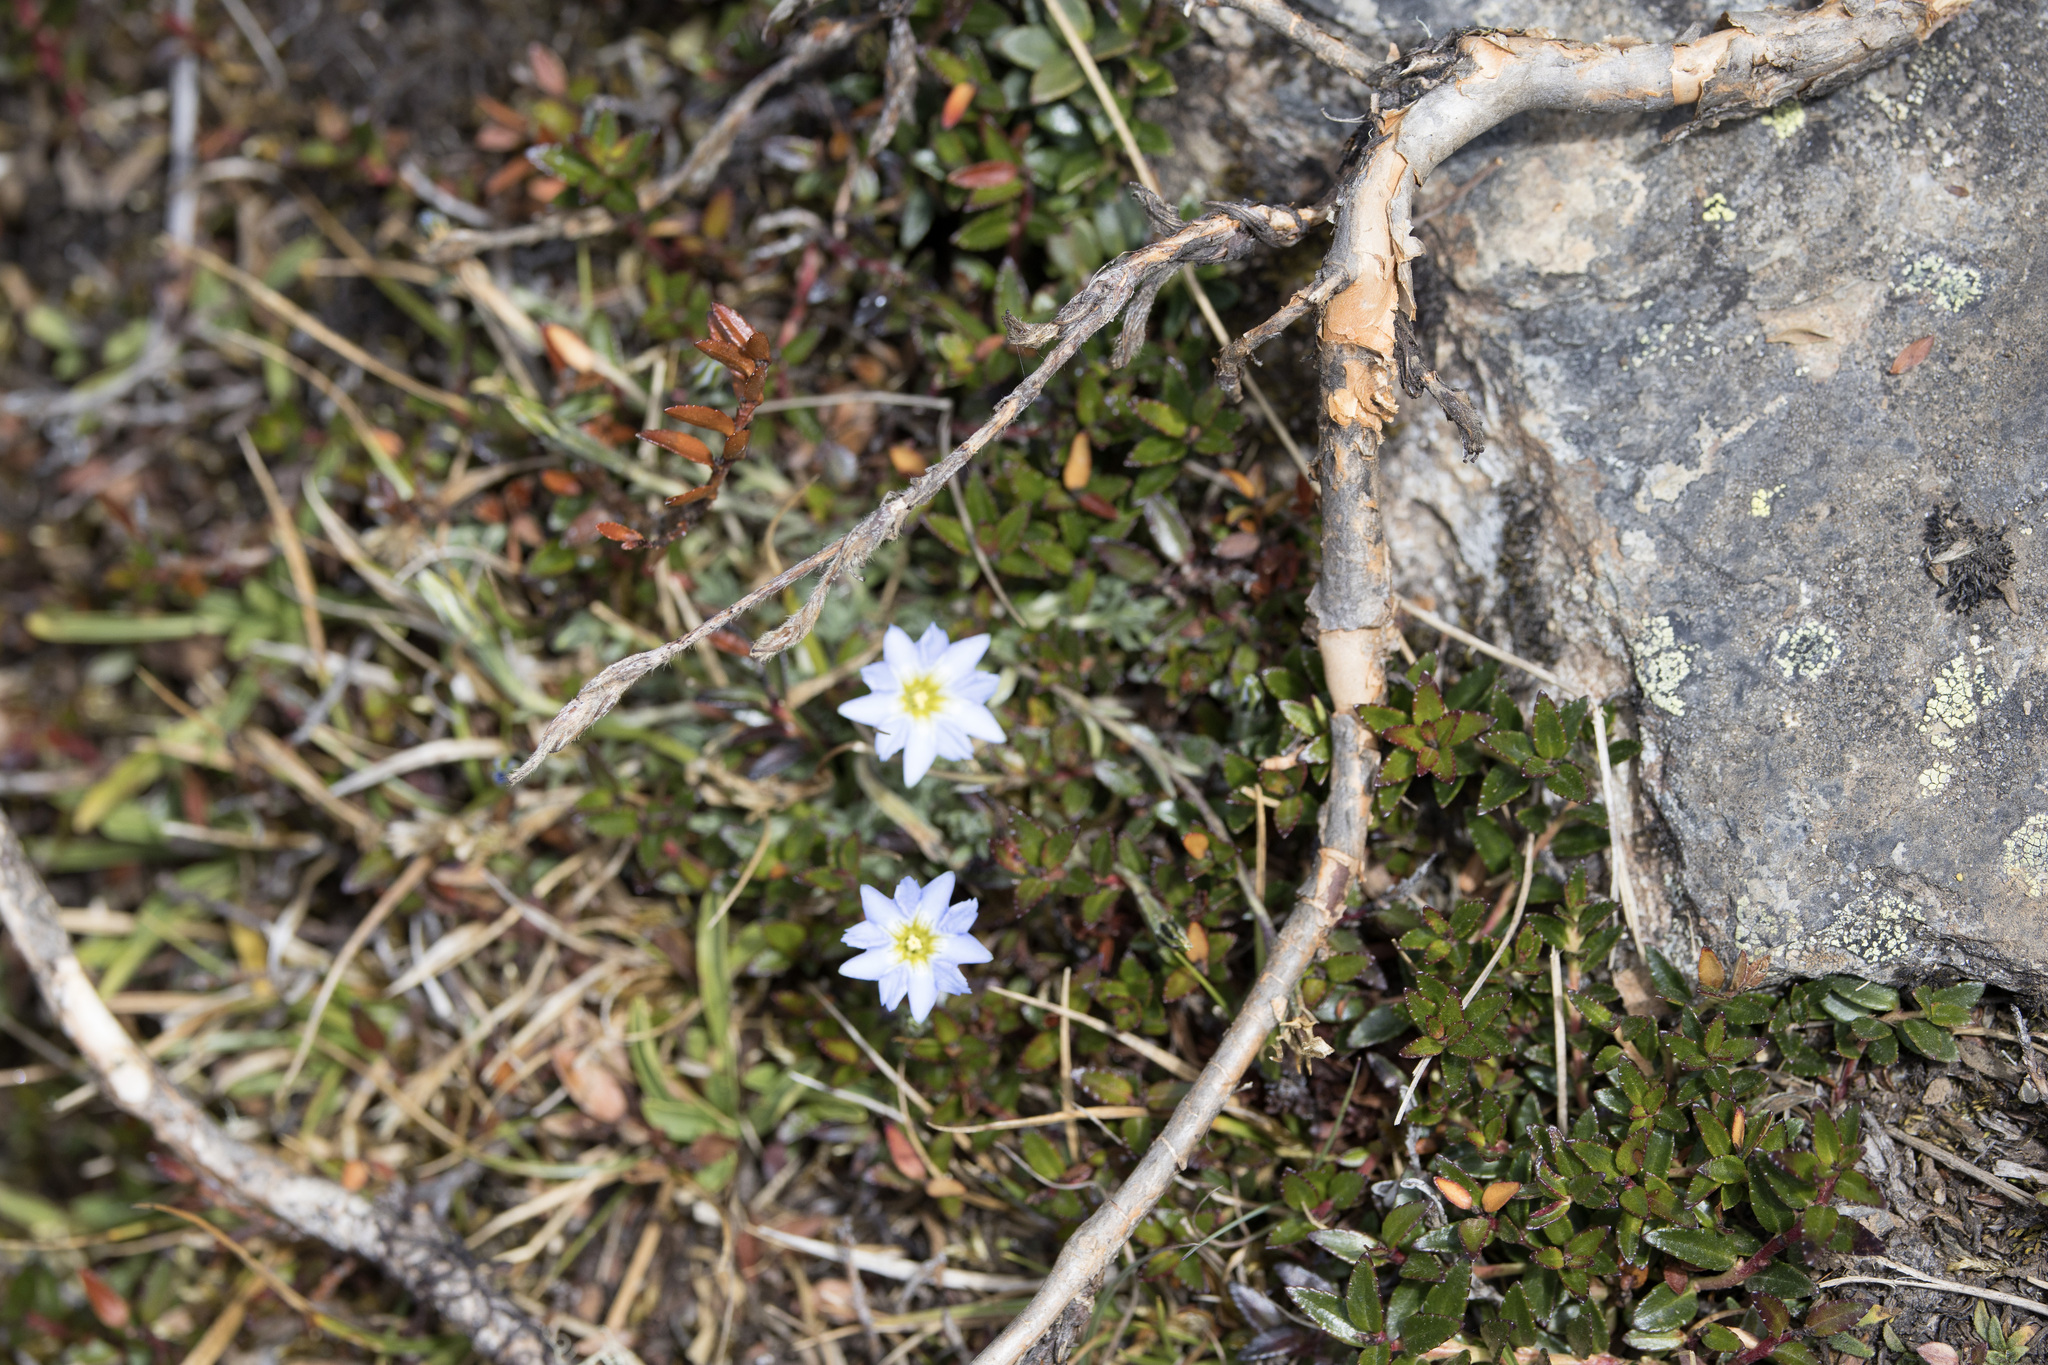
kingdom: Plantae
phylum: Tracheophyta
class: Magnoliopsida
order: Gentianales
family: Gentianaceae
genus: Gentiana
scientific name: Gentiana sedifolia
